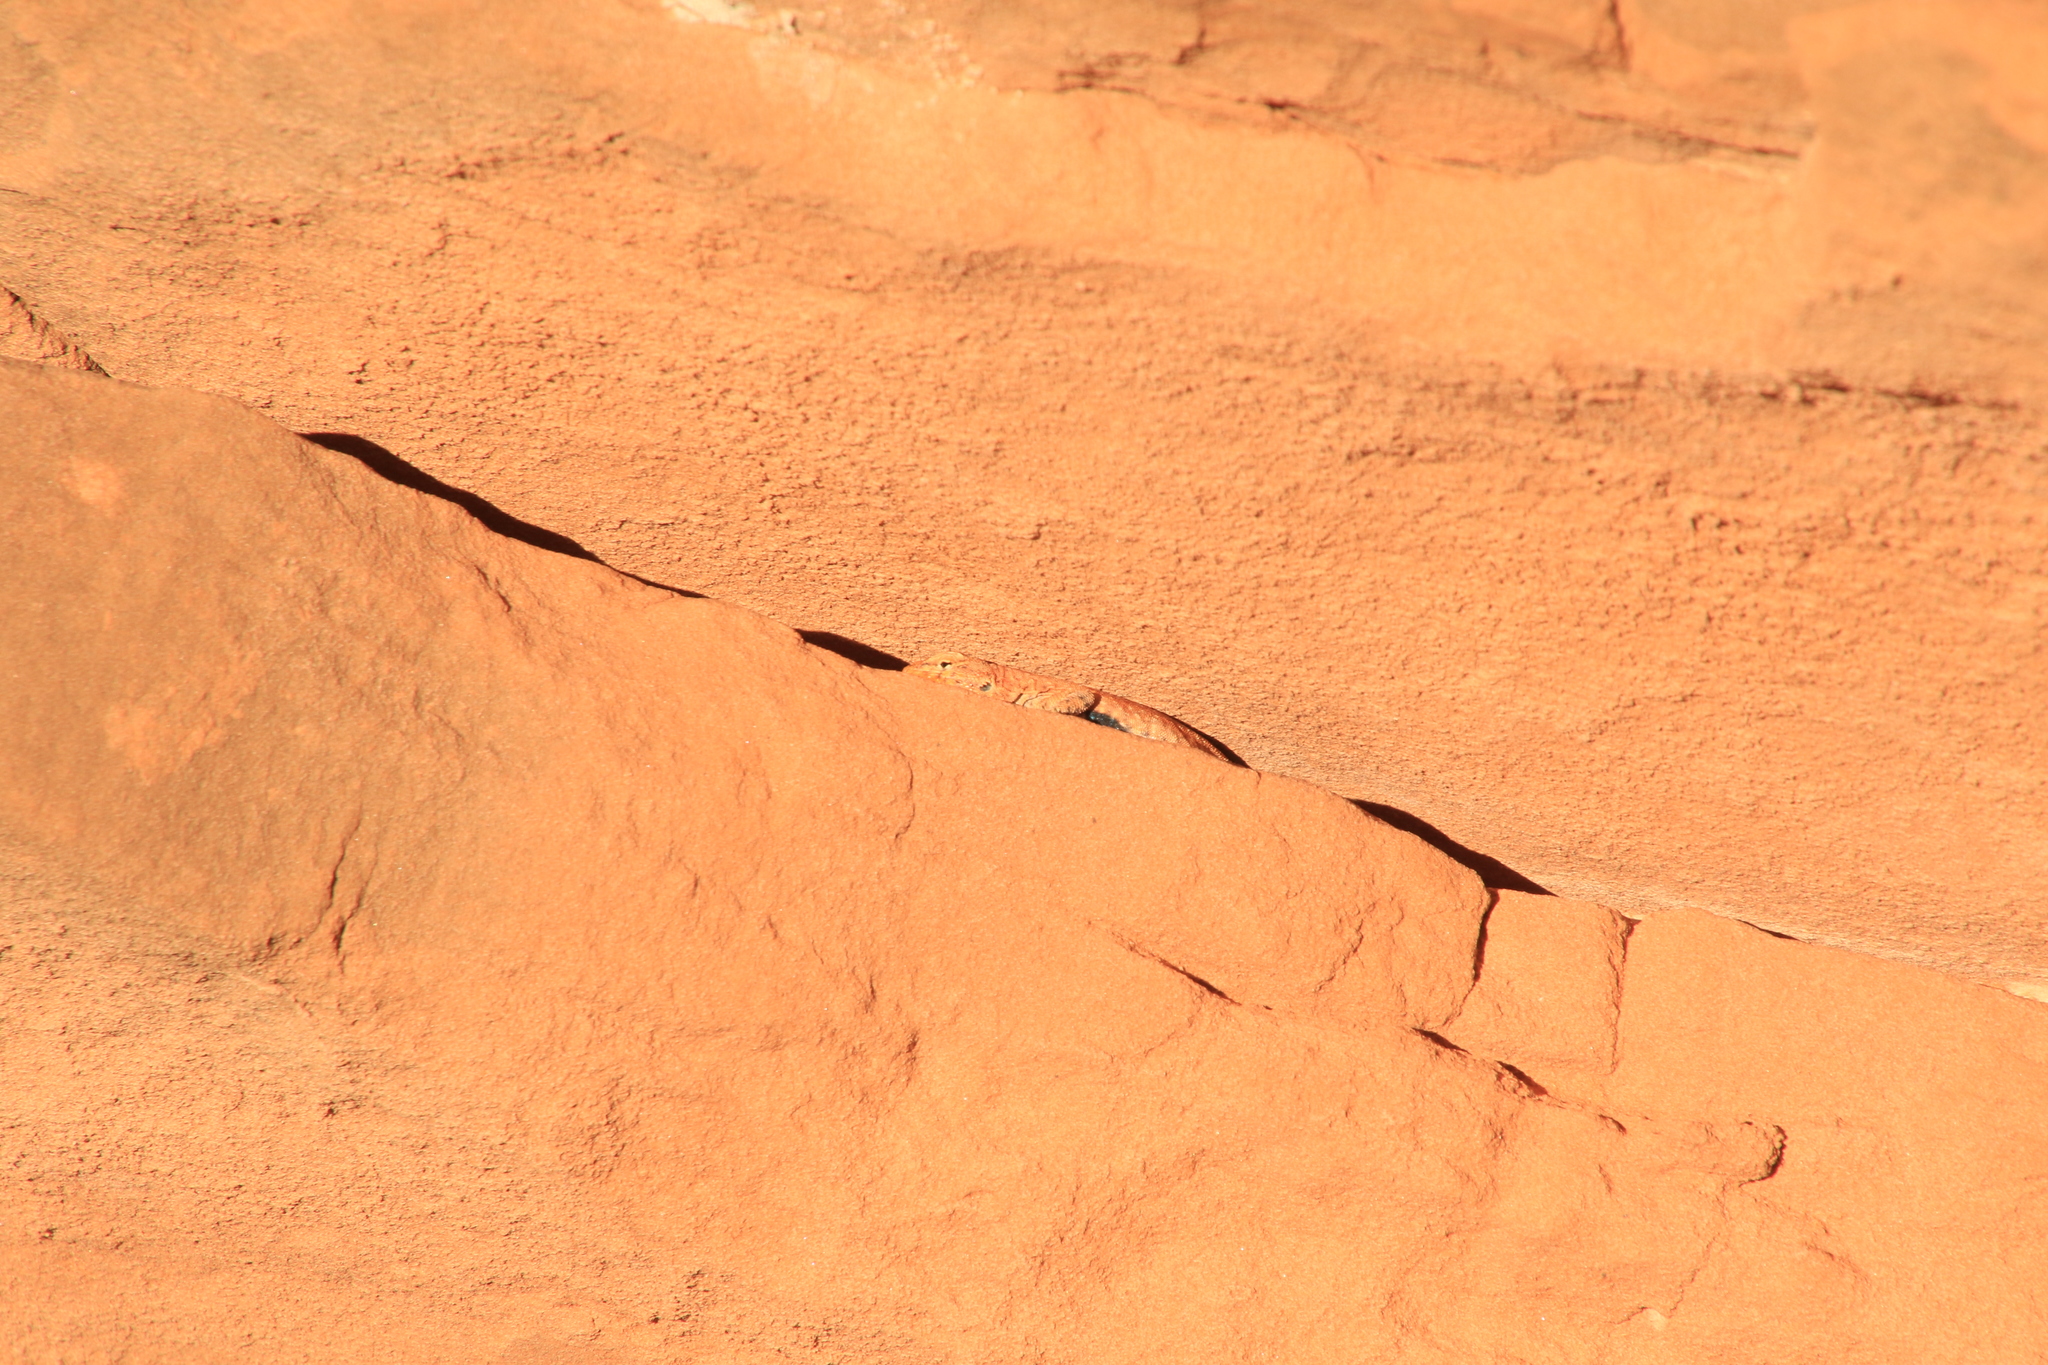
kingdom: Animalia
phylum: Chordata
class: Squamata
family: Phrynosomatidae
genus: Uta
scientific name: Uta stansburiana
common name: Side-blotched lizard
